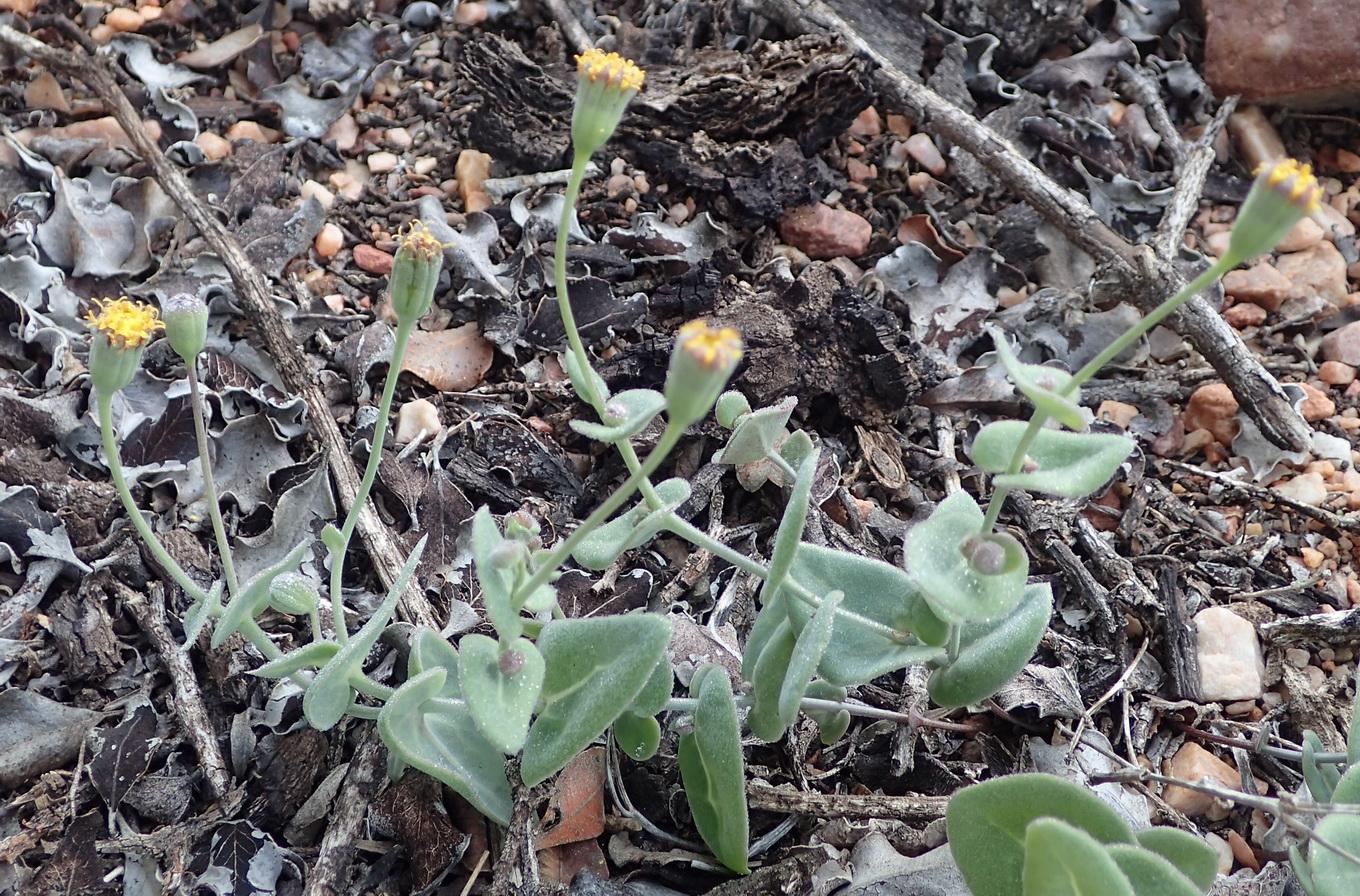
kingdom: Plantae
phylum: Tracheophyta
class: Magnoliopsida
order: Asterales
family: Asteraceae
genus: Othonna
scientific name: Othonna undulosa
